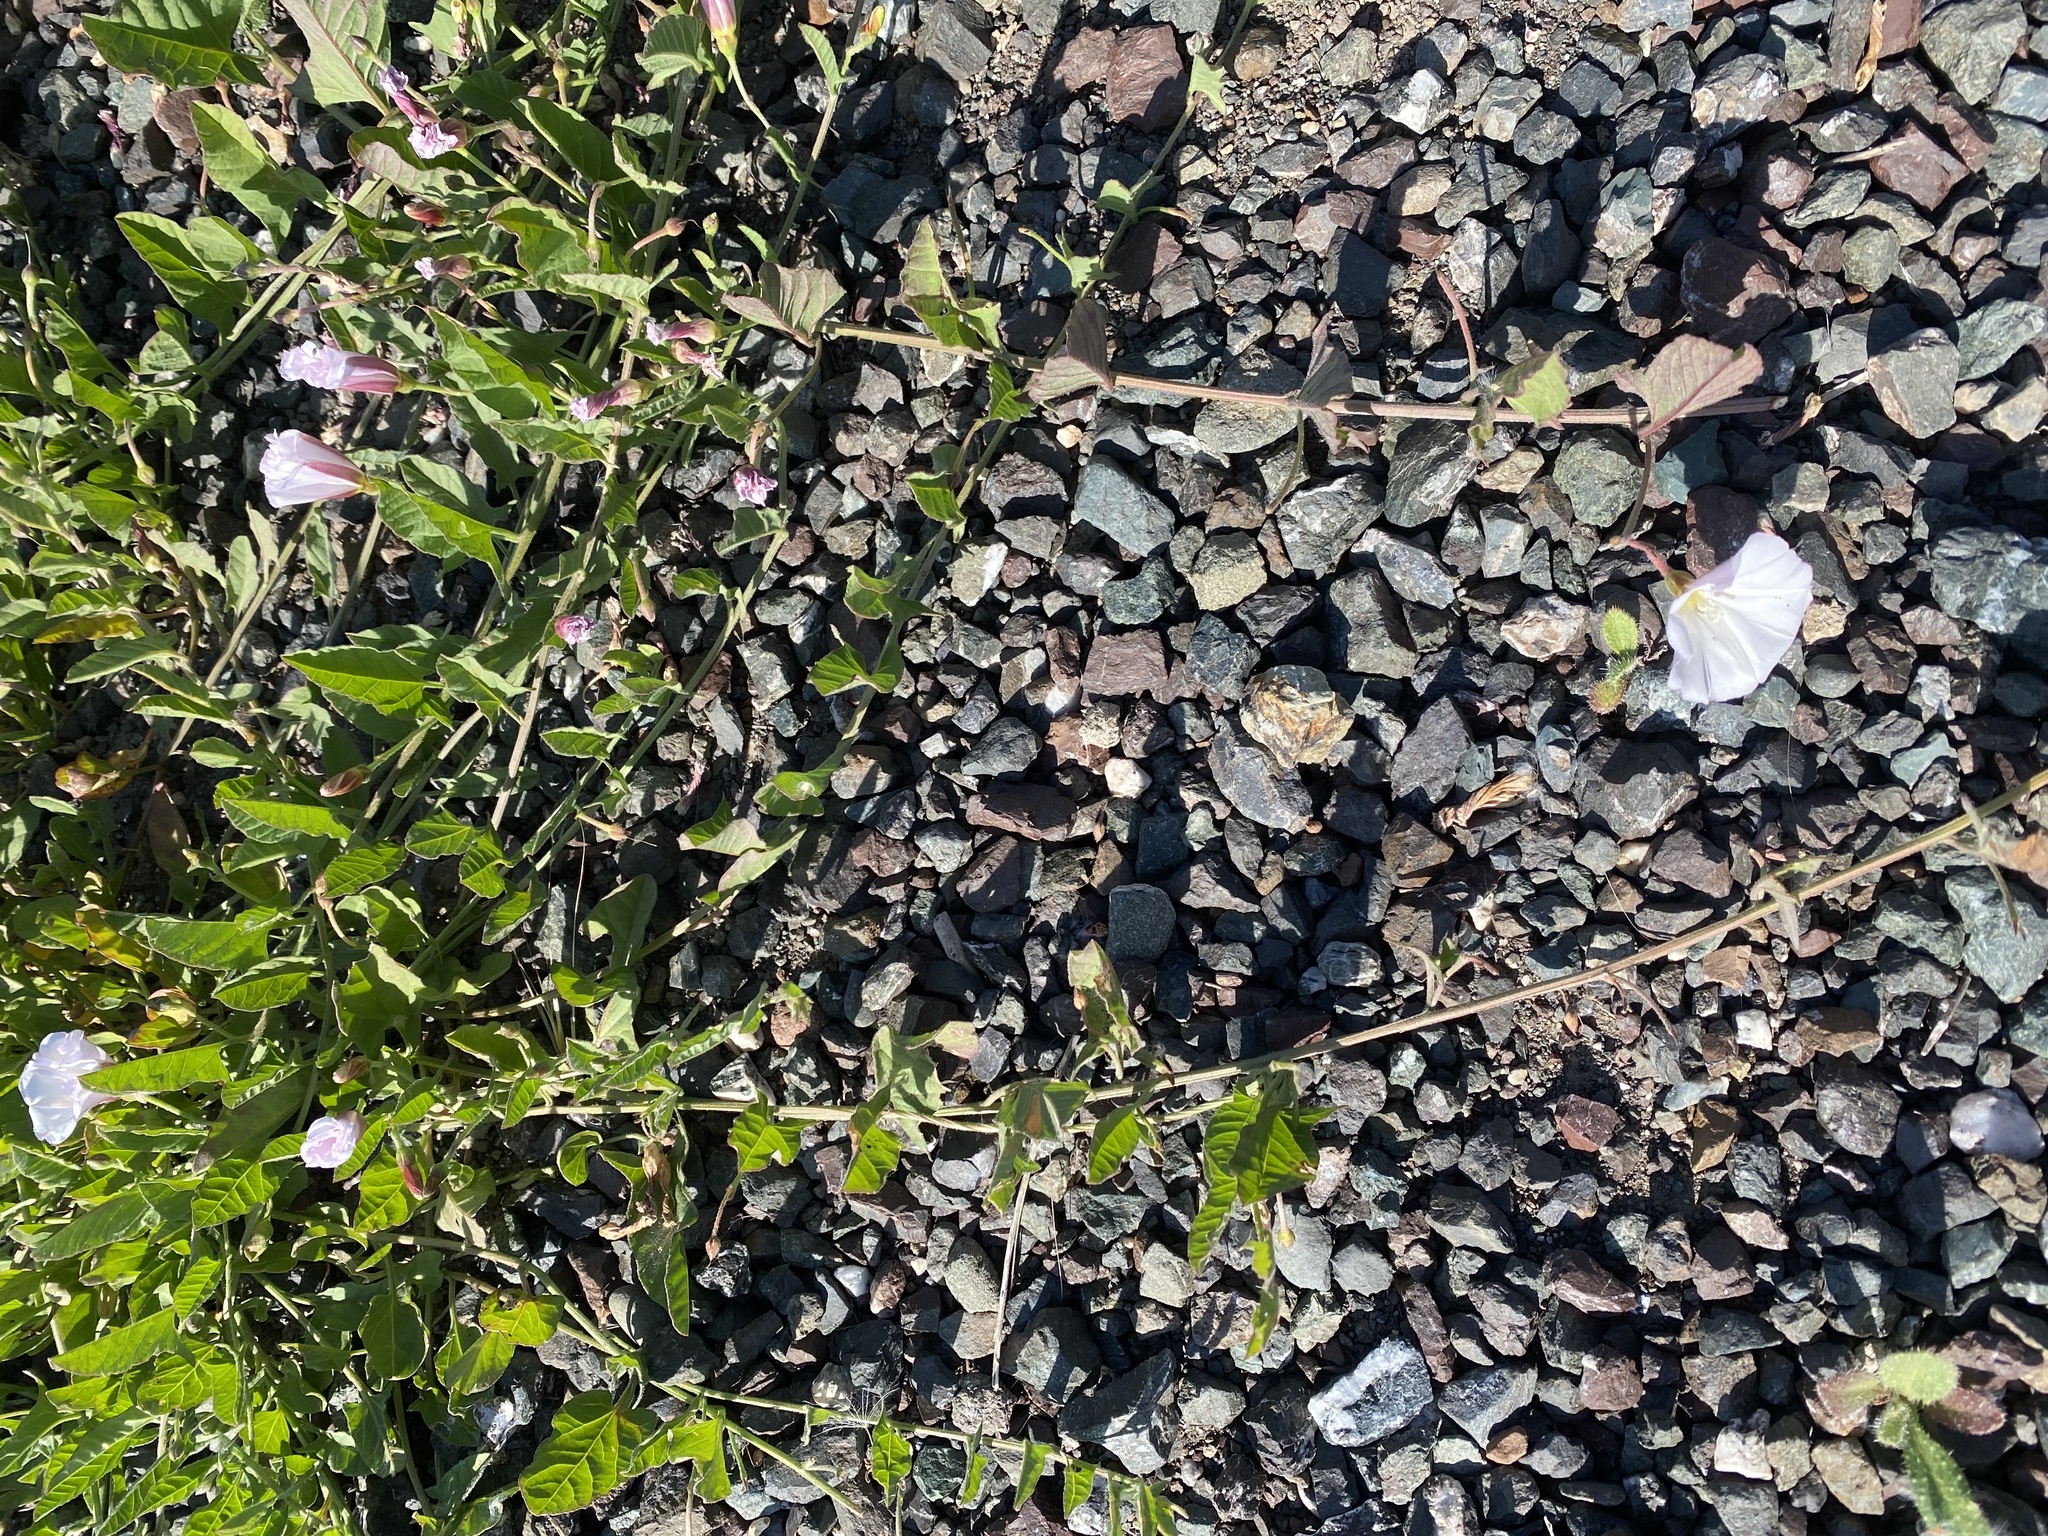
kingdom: Plantae
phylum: Tracheophyta
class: Magnoliopsida
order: Solanales
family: Convolvulaceae
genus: Convolvulus
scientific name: Convolvulus arvensis
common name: Field bindweed
